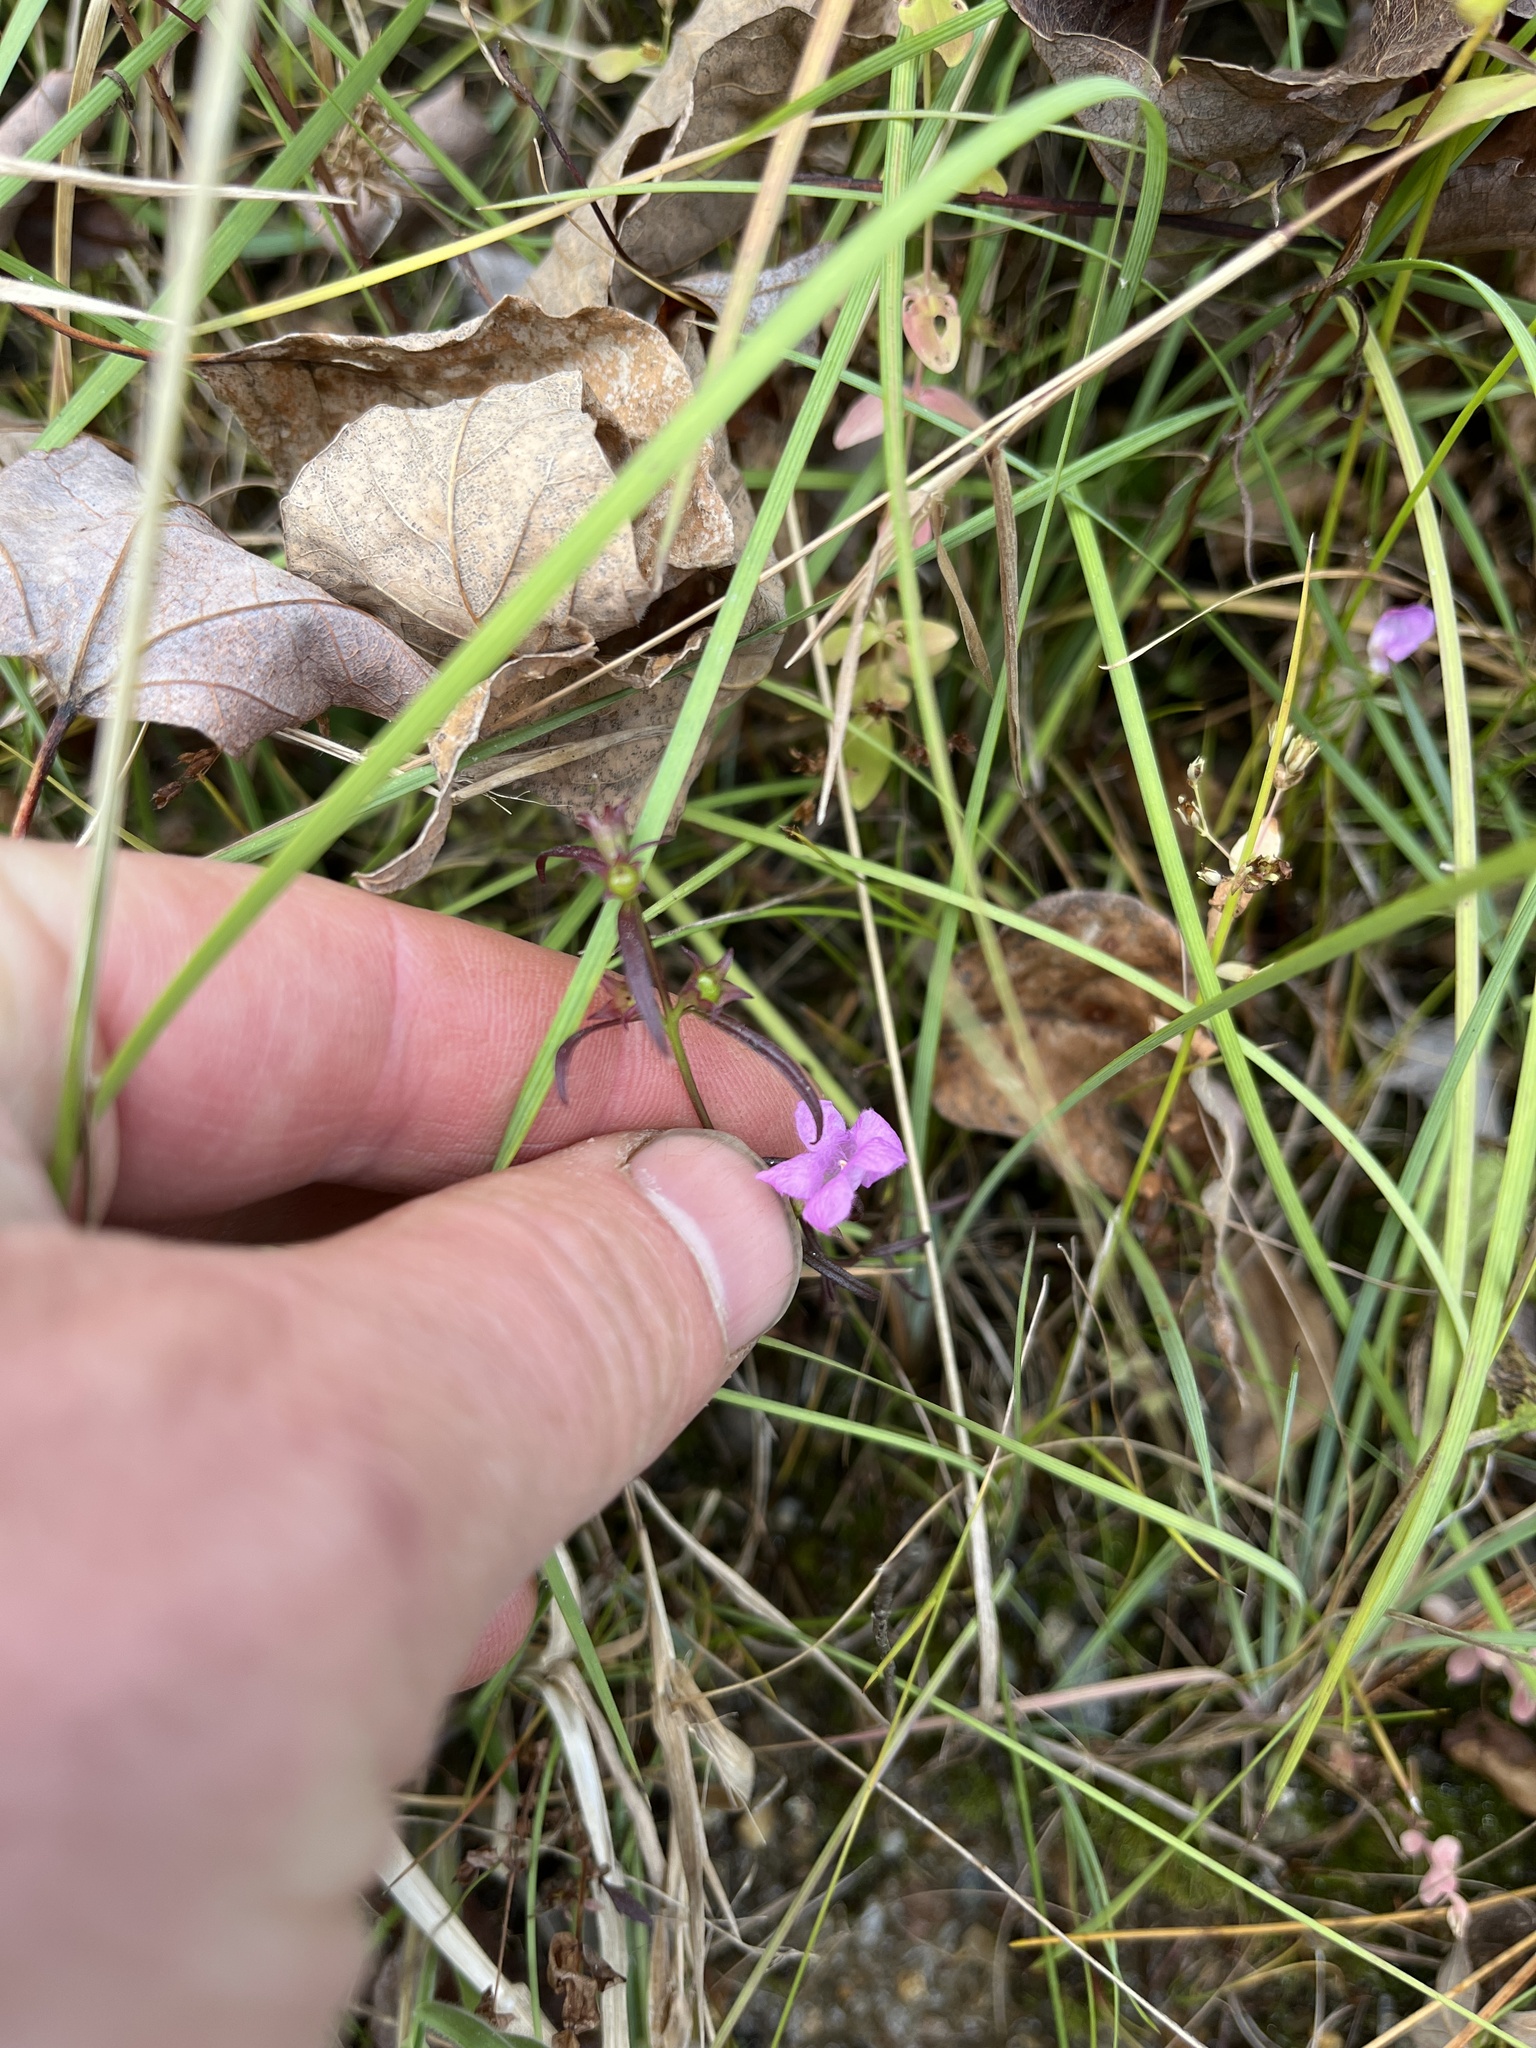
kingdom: Plantae
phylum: Tracheophyta
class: Magnoliopsida
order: Lamiales
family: Orobanchaceae
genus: Agalinis
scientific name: Agalinis purpurea
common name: Purple false foxglove
